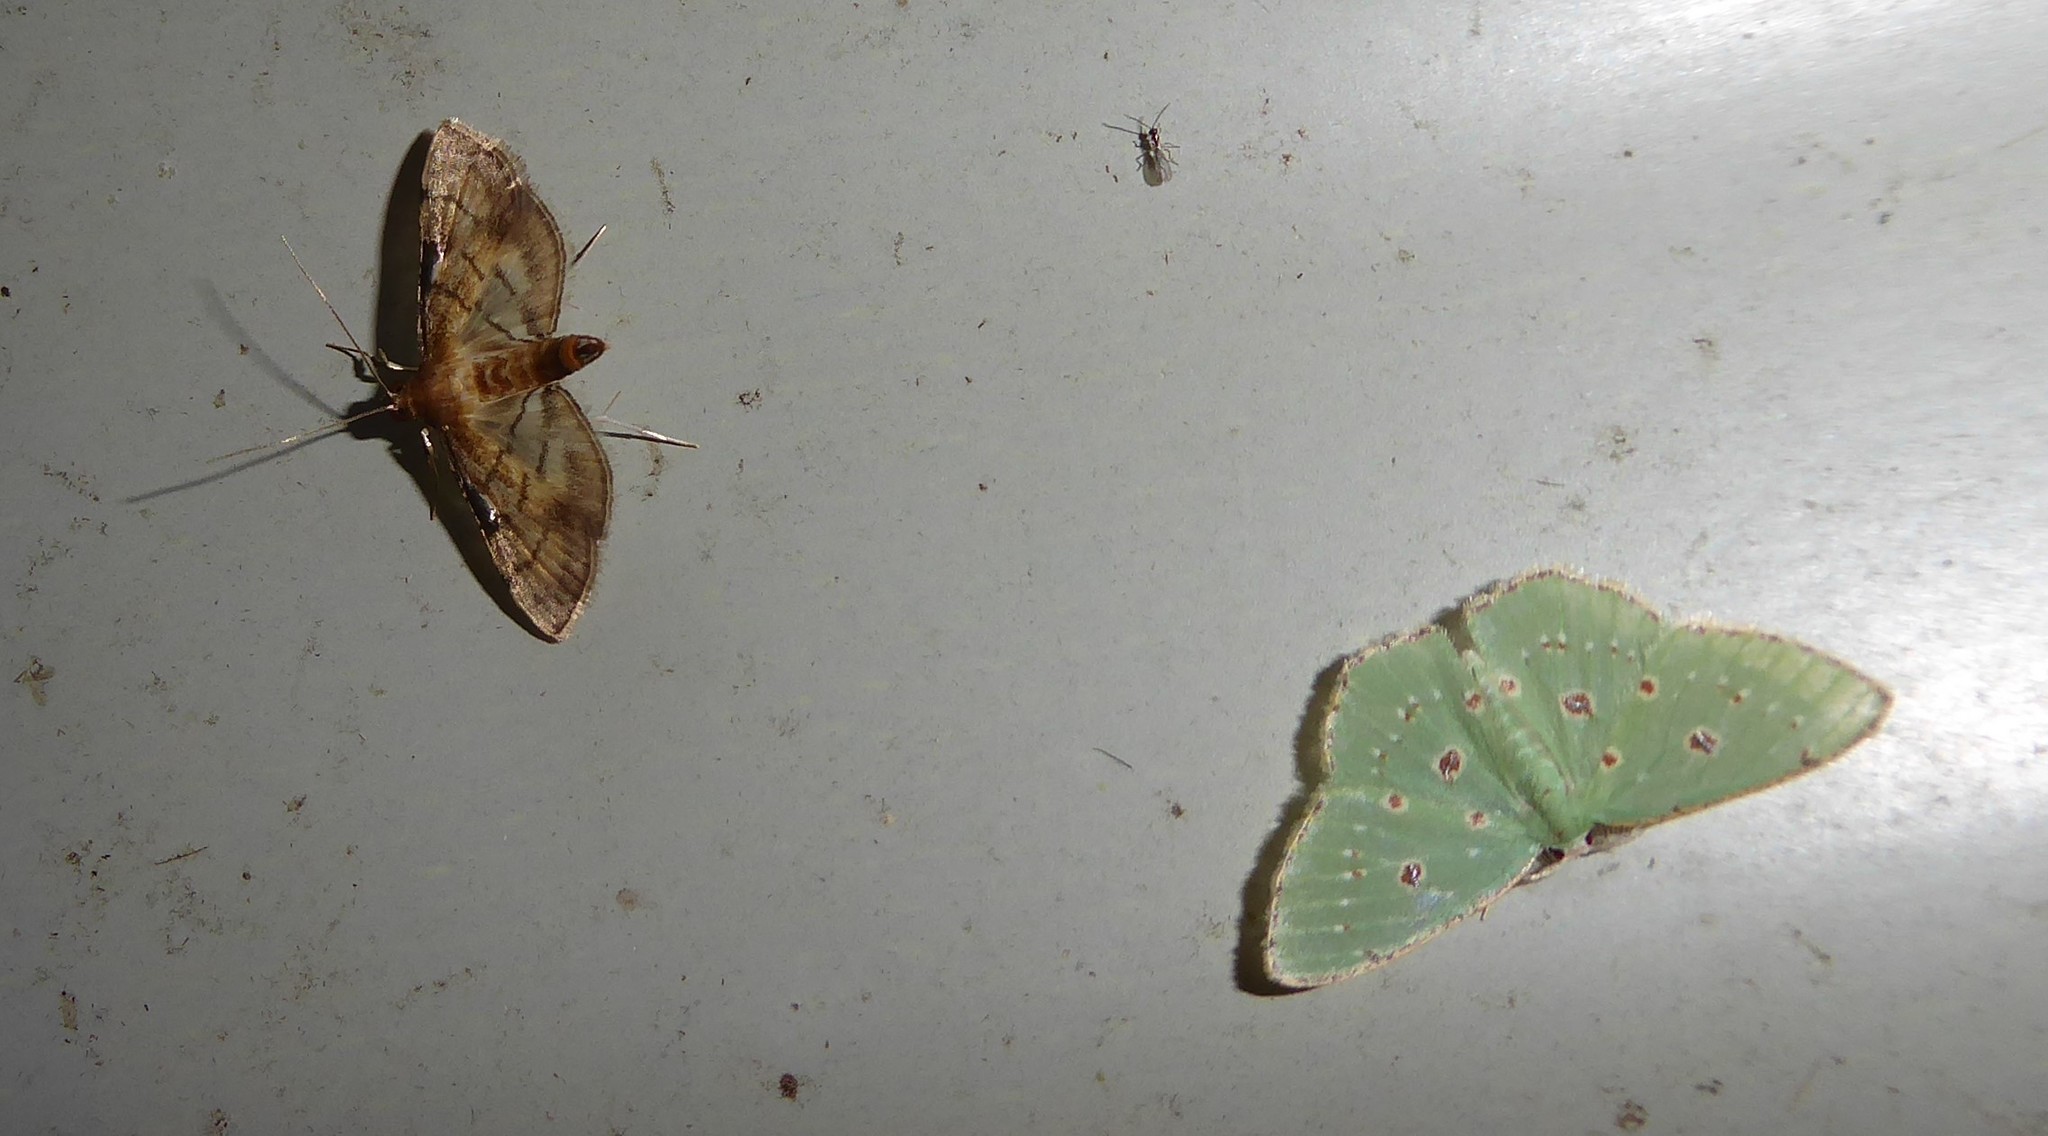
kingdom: Animalia
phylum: Arthropoda
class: Insecta
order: Lepidoptera
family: Geometridae
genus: Comostola
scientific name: Comostola laesaria
